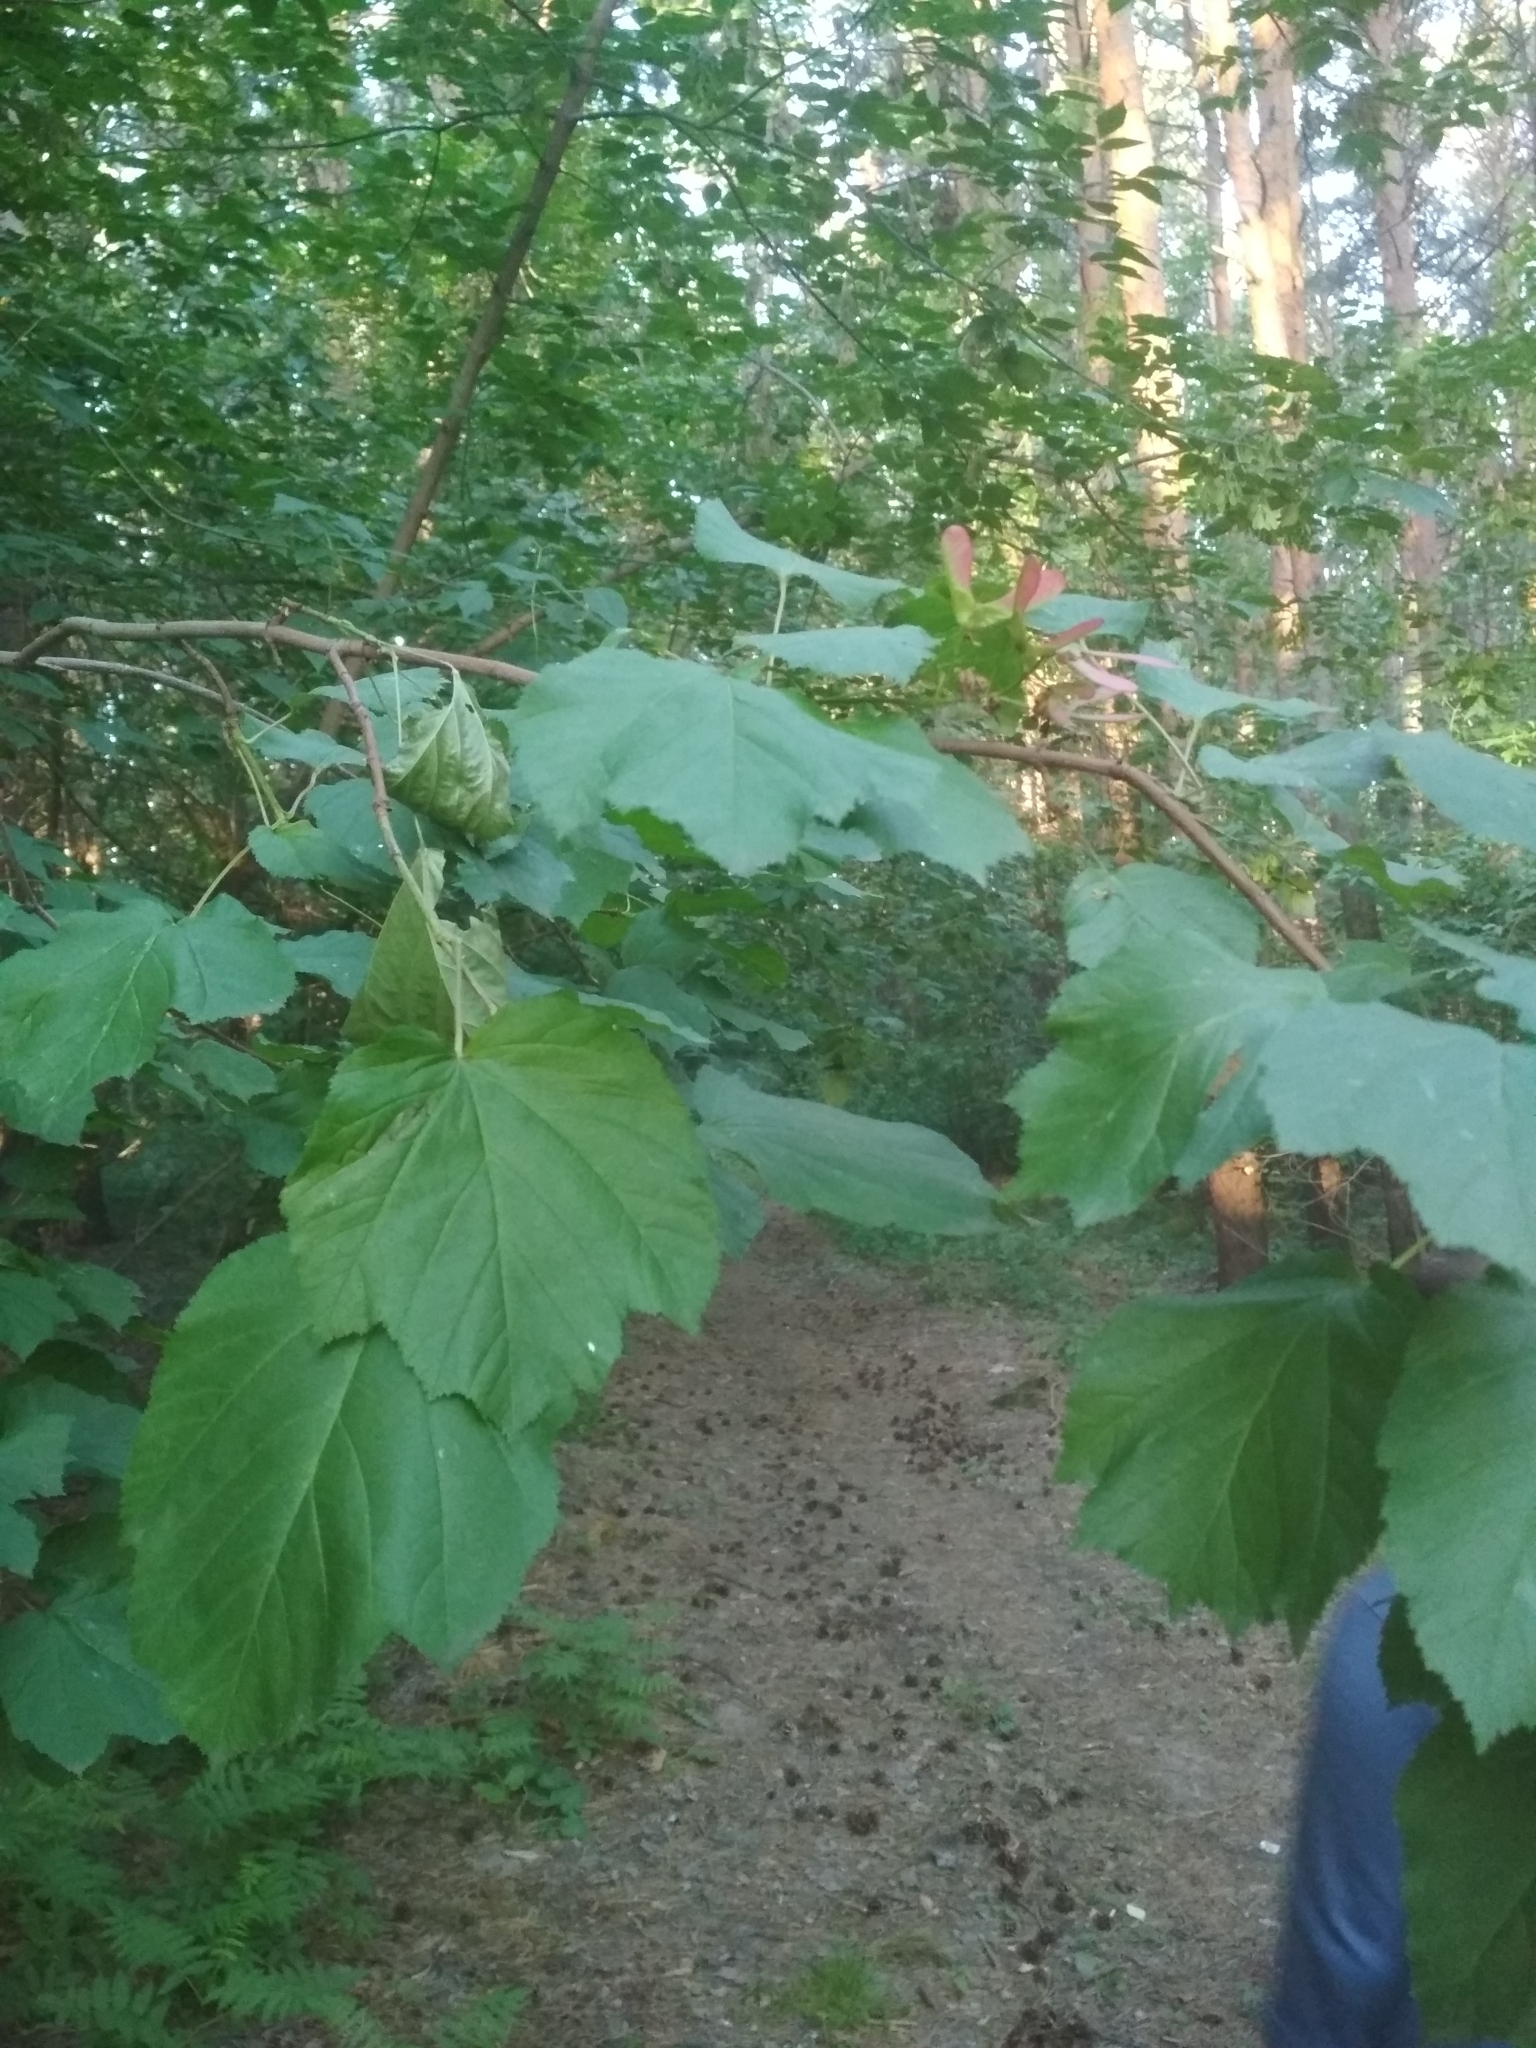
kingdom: Plantae
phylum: Tracheophyta
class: Magnoliopsida
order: Sapindales
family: Sapindaceae
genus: Acer
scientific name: Acer tataricum
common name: Tartar maple
